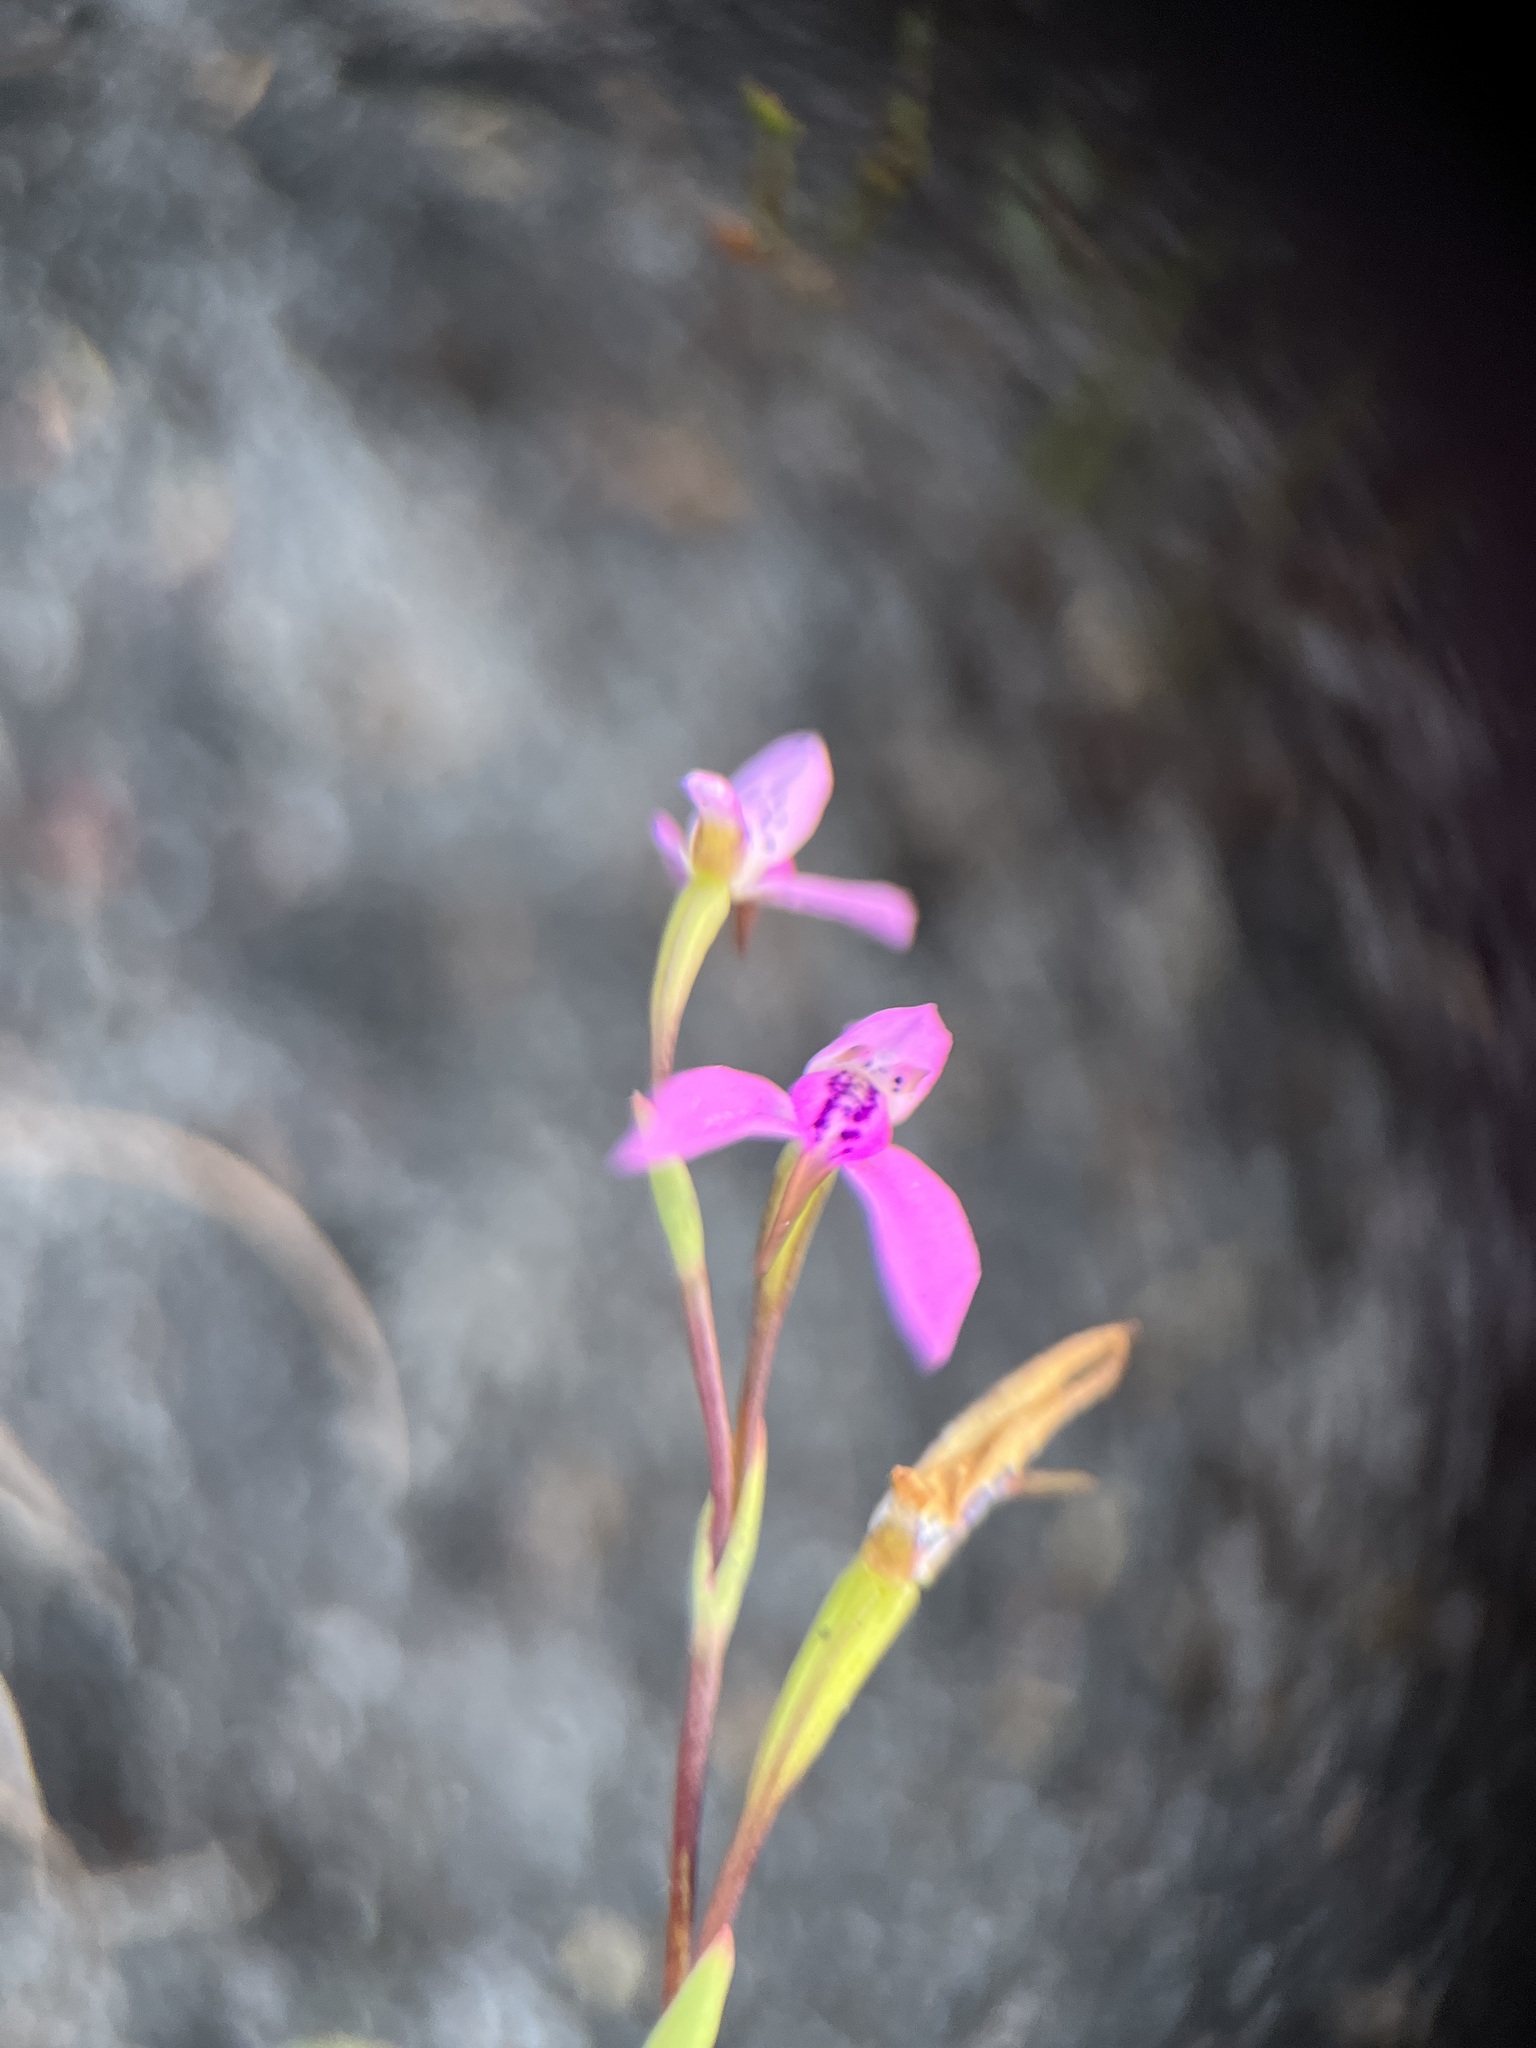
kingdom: Plantae
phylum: Tracheophyta
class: Liliopsida
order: Asparagales
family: Orchidaceae
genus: Disa
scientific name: Disa obliqua
